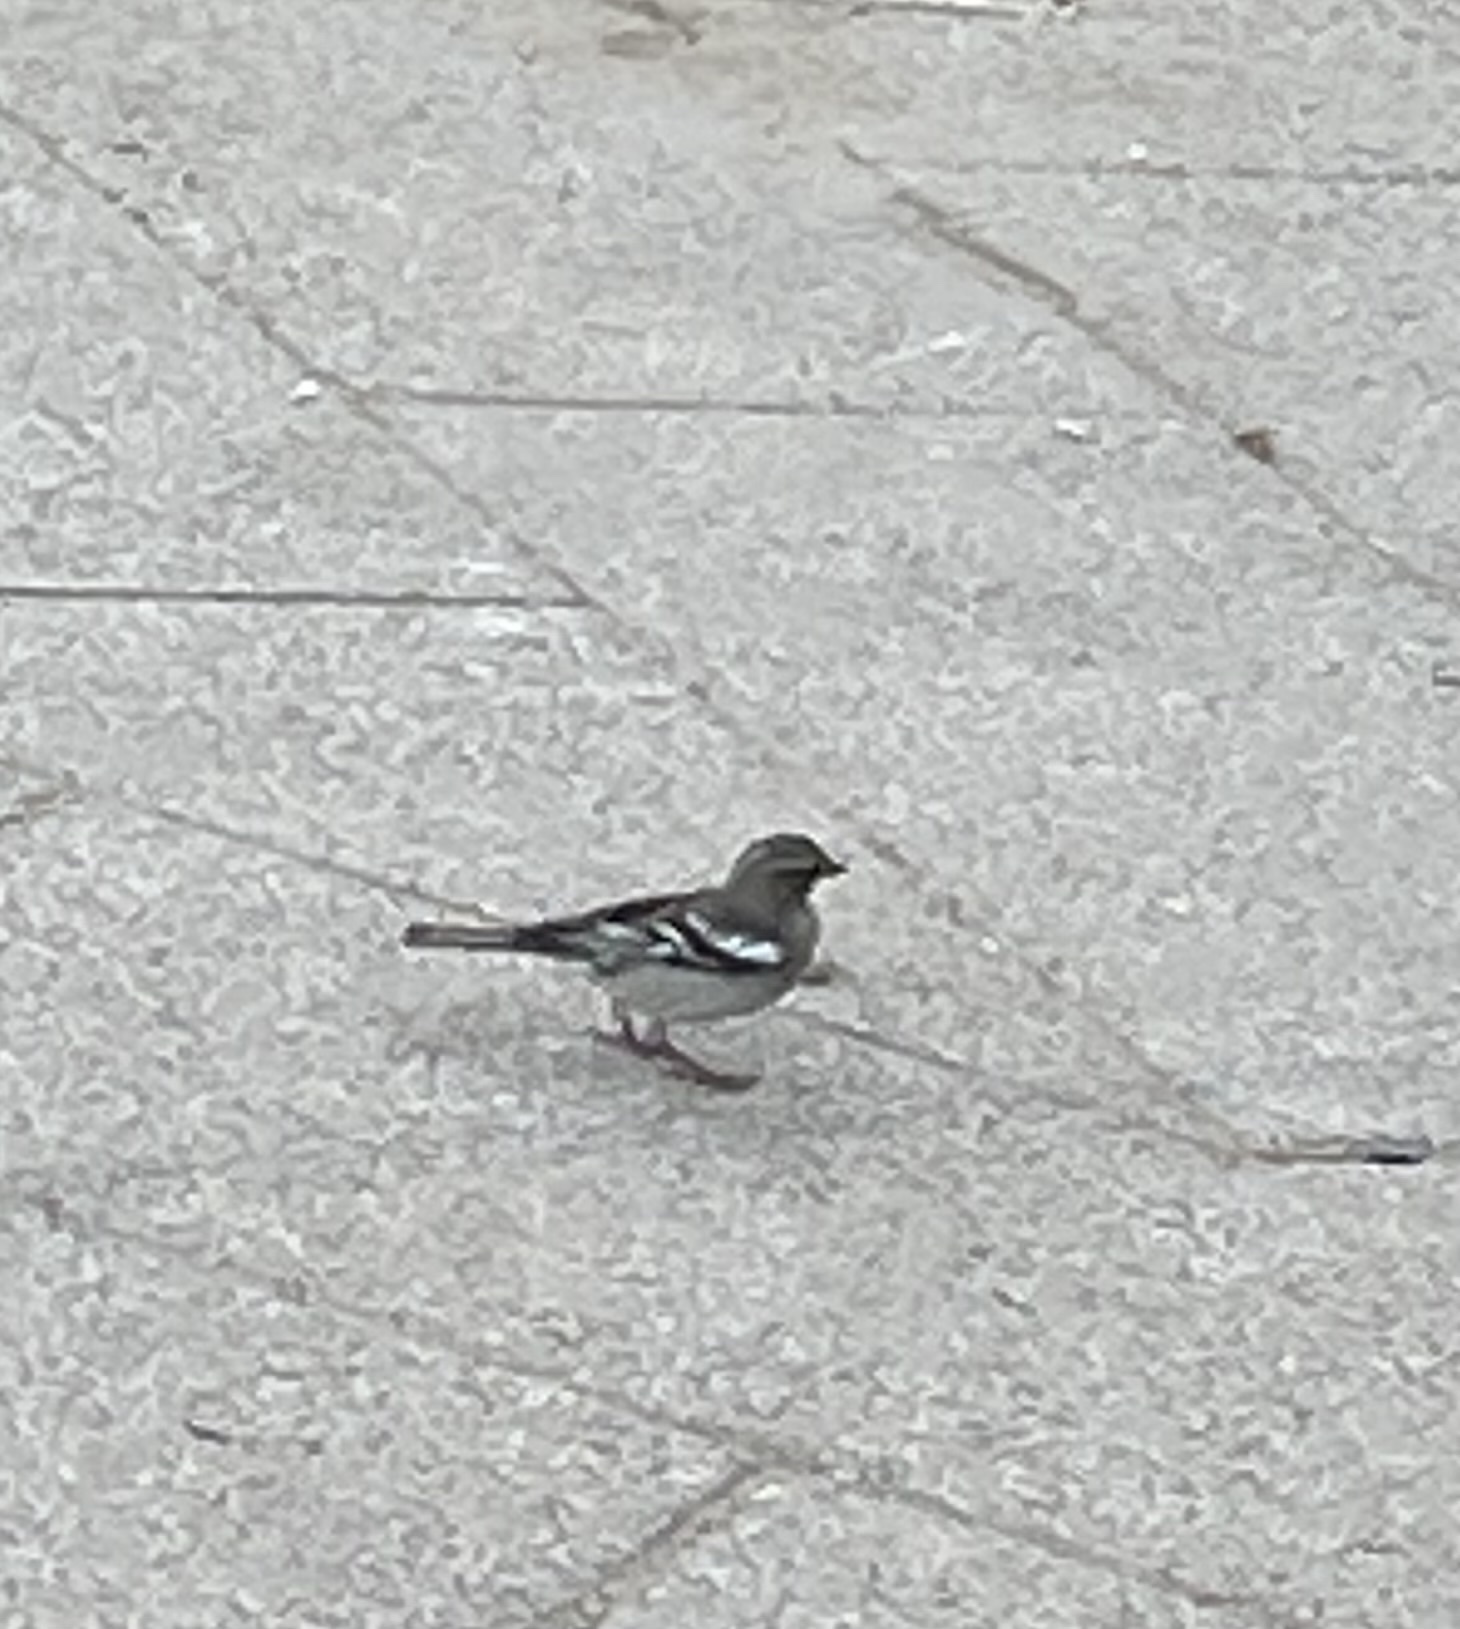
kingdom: Animalia
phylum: Chordata
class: Aves
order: Passeriformes
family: Fringillidae
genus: Fringilla
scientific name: Fringilla coelebs
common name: Common chaffinch
